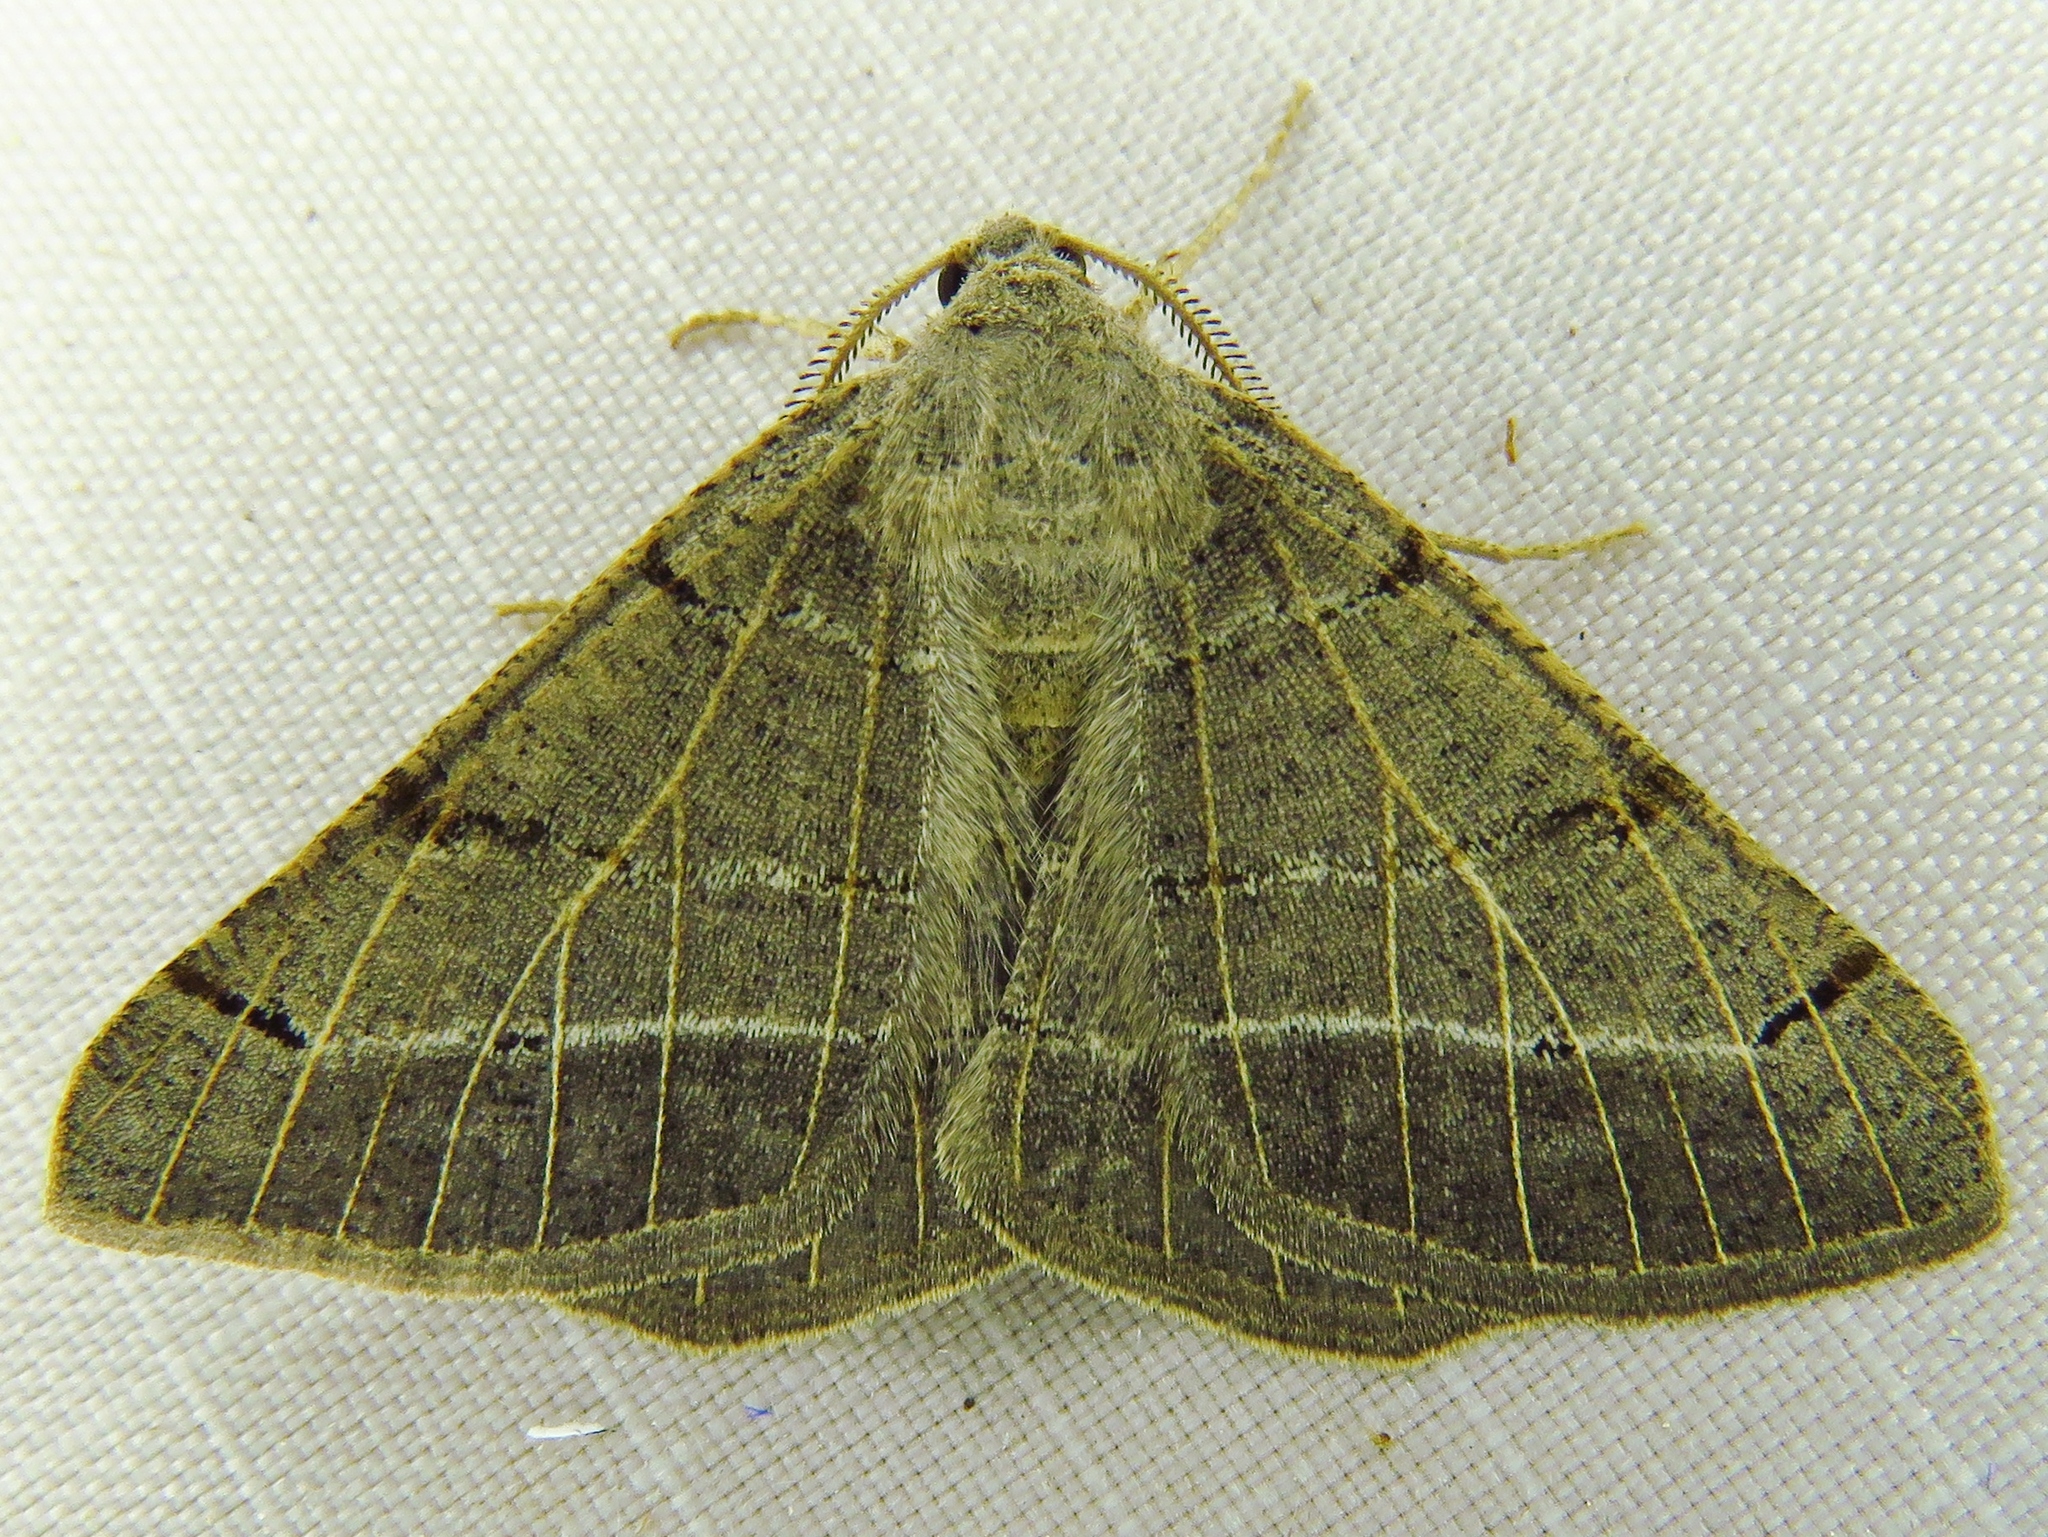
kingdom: Animalia
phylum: Arthropoda
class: Insecta
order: Lepidoptera
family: Geometridae
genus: Isturgia
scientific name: Isturgia dislocaria
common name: Pale-viened enconista
